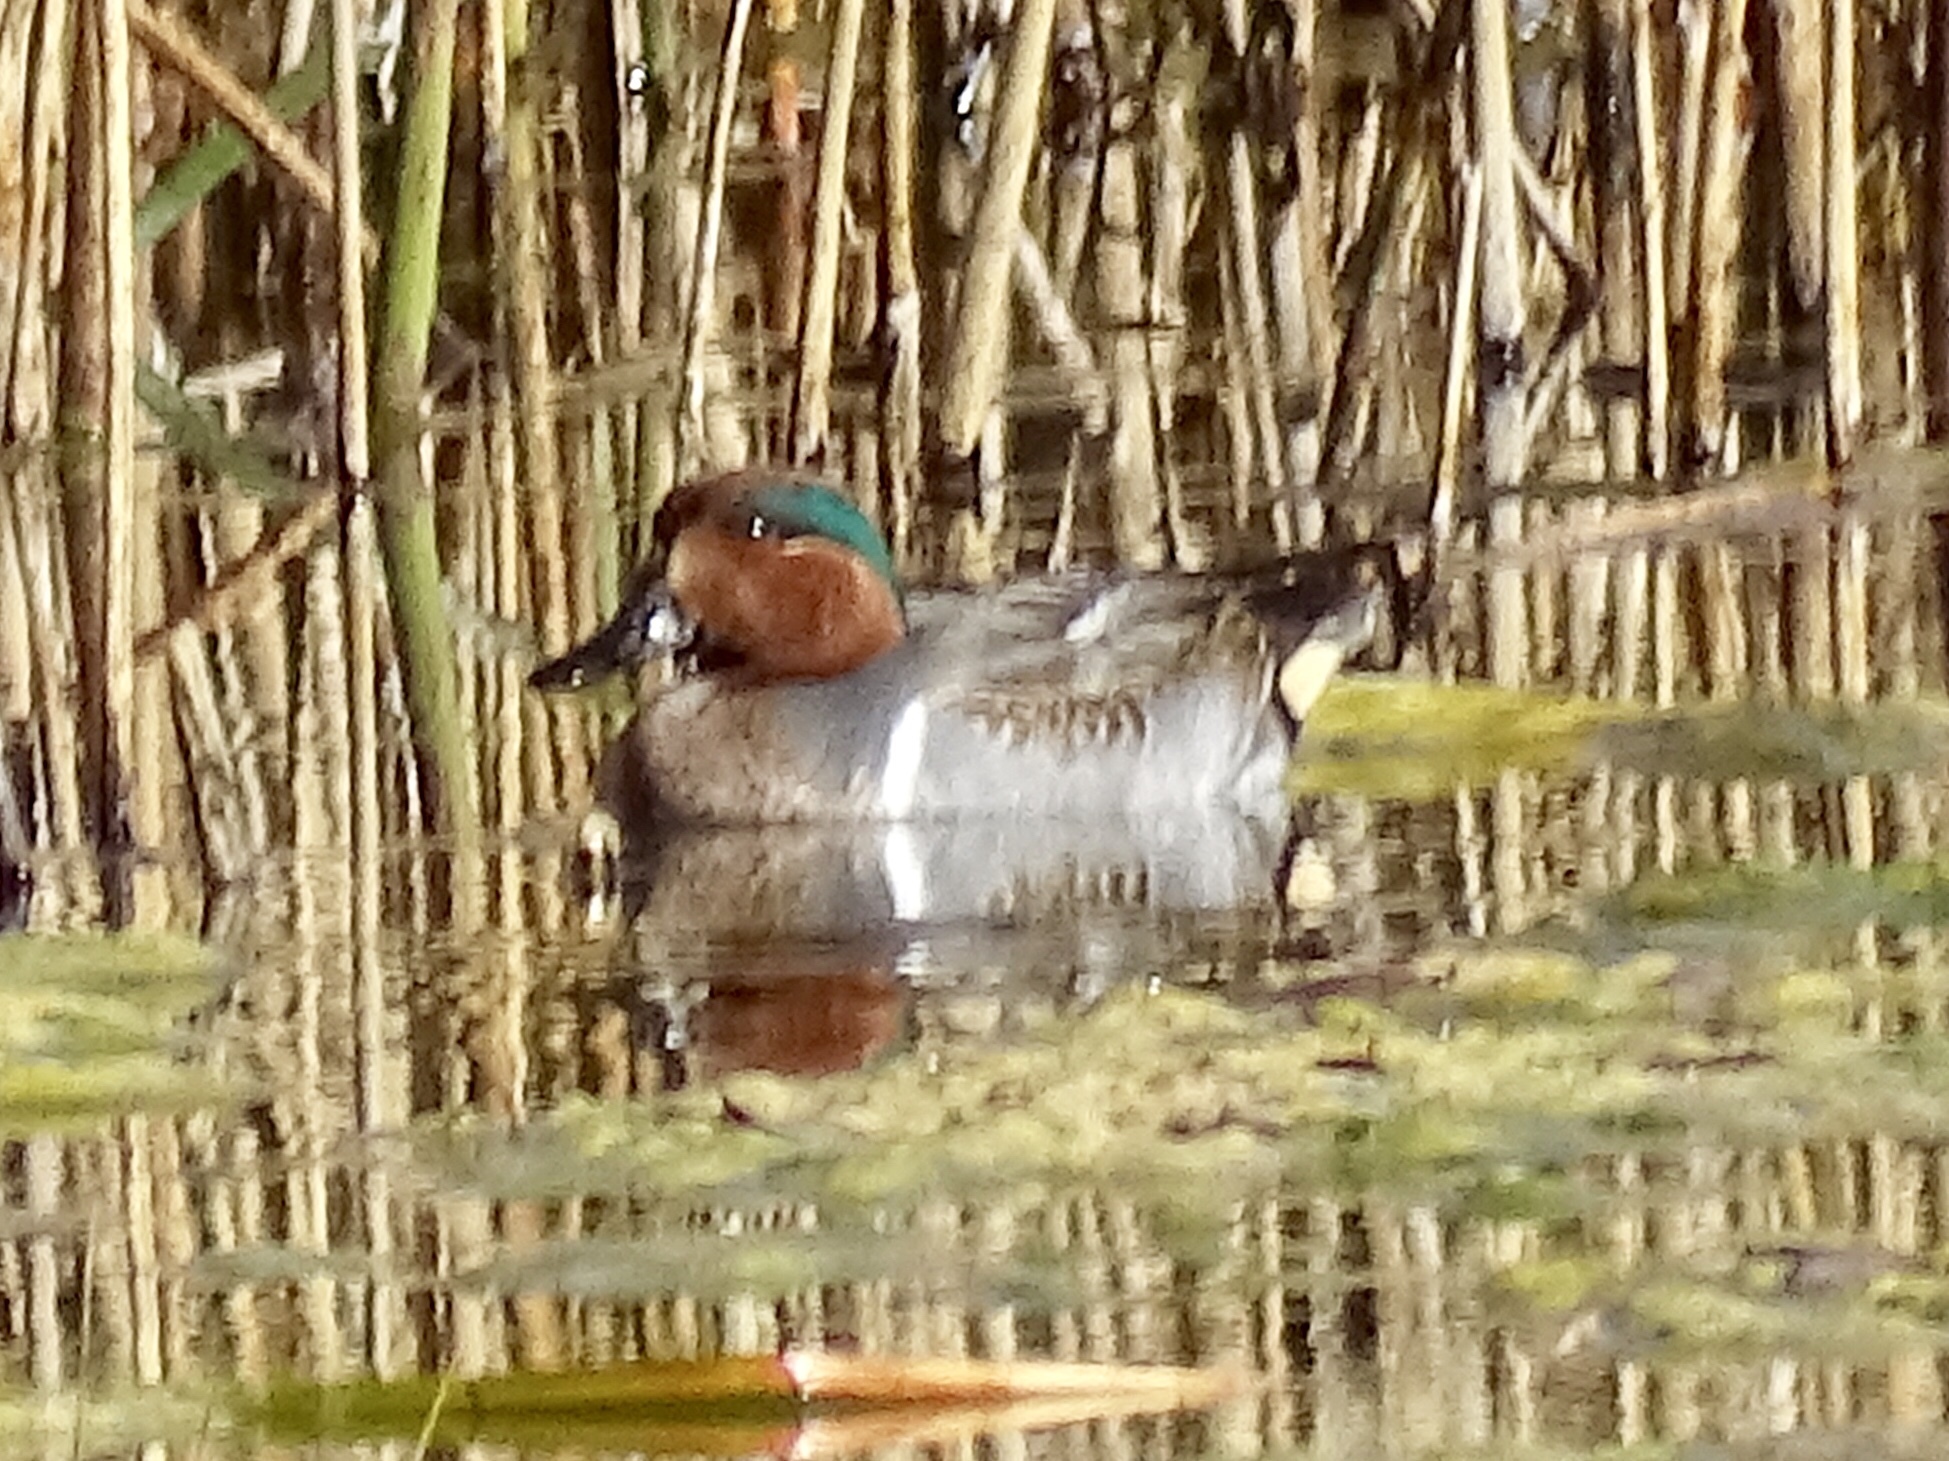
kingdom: Animalia
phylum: Chordata
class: Aves
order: Anseriformes
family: Anatidae
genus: Anas
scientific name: Anas crecca
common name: Eurasian teal
